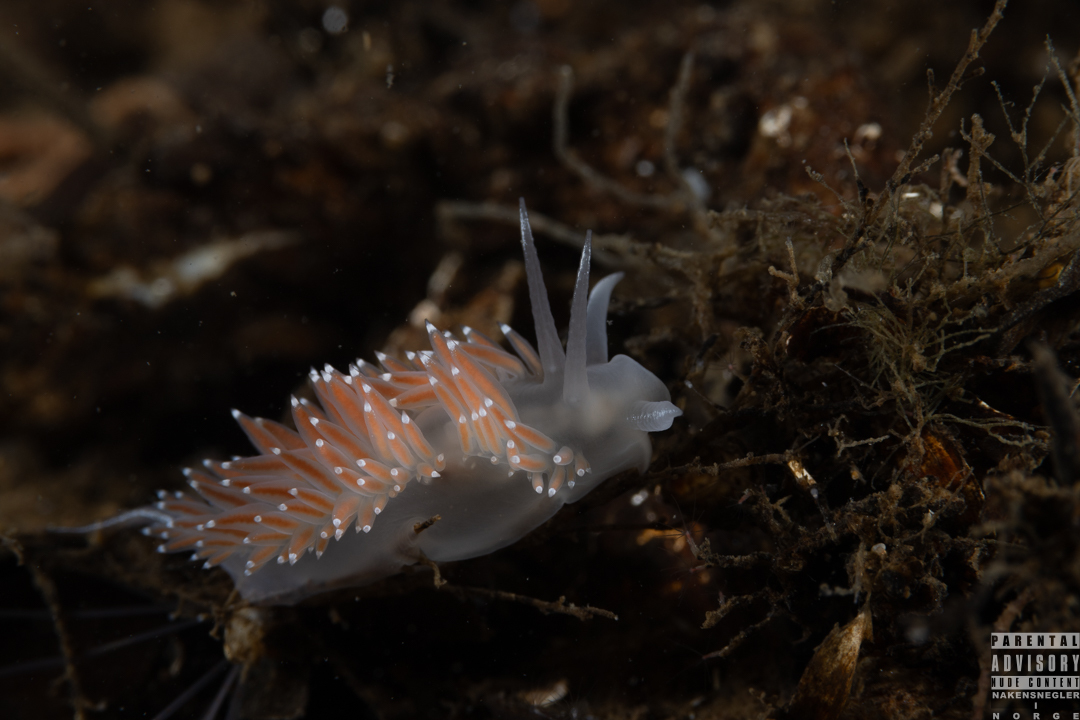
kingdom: Animalia
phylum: Mollusca
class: Gastropoda
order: Nudibranchia
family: Coryphellidae
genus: Coryphella
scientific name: Coryphella verrucosa
